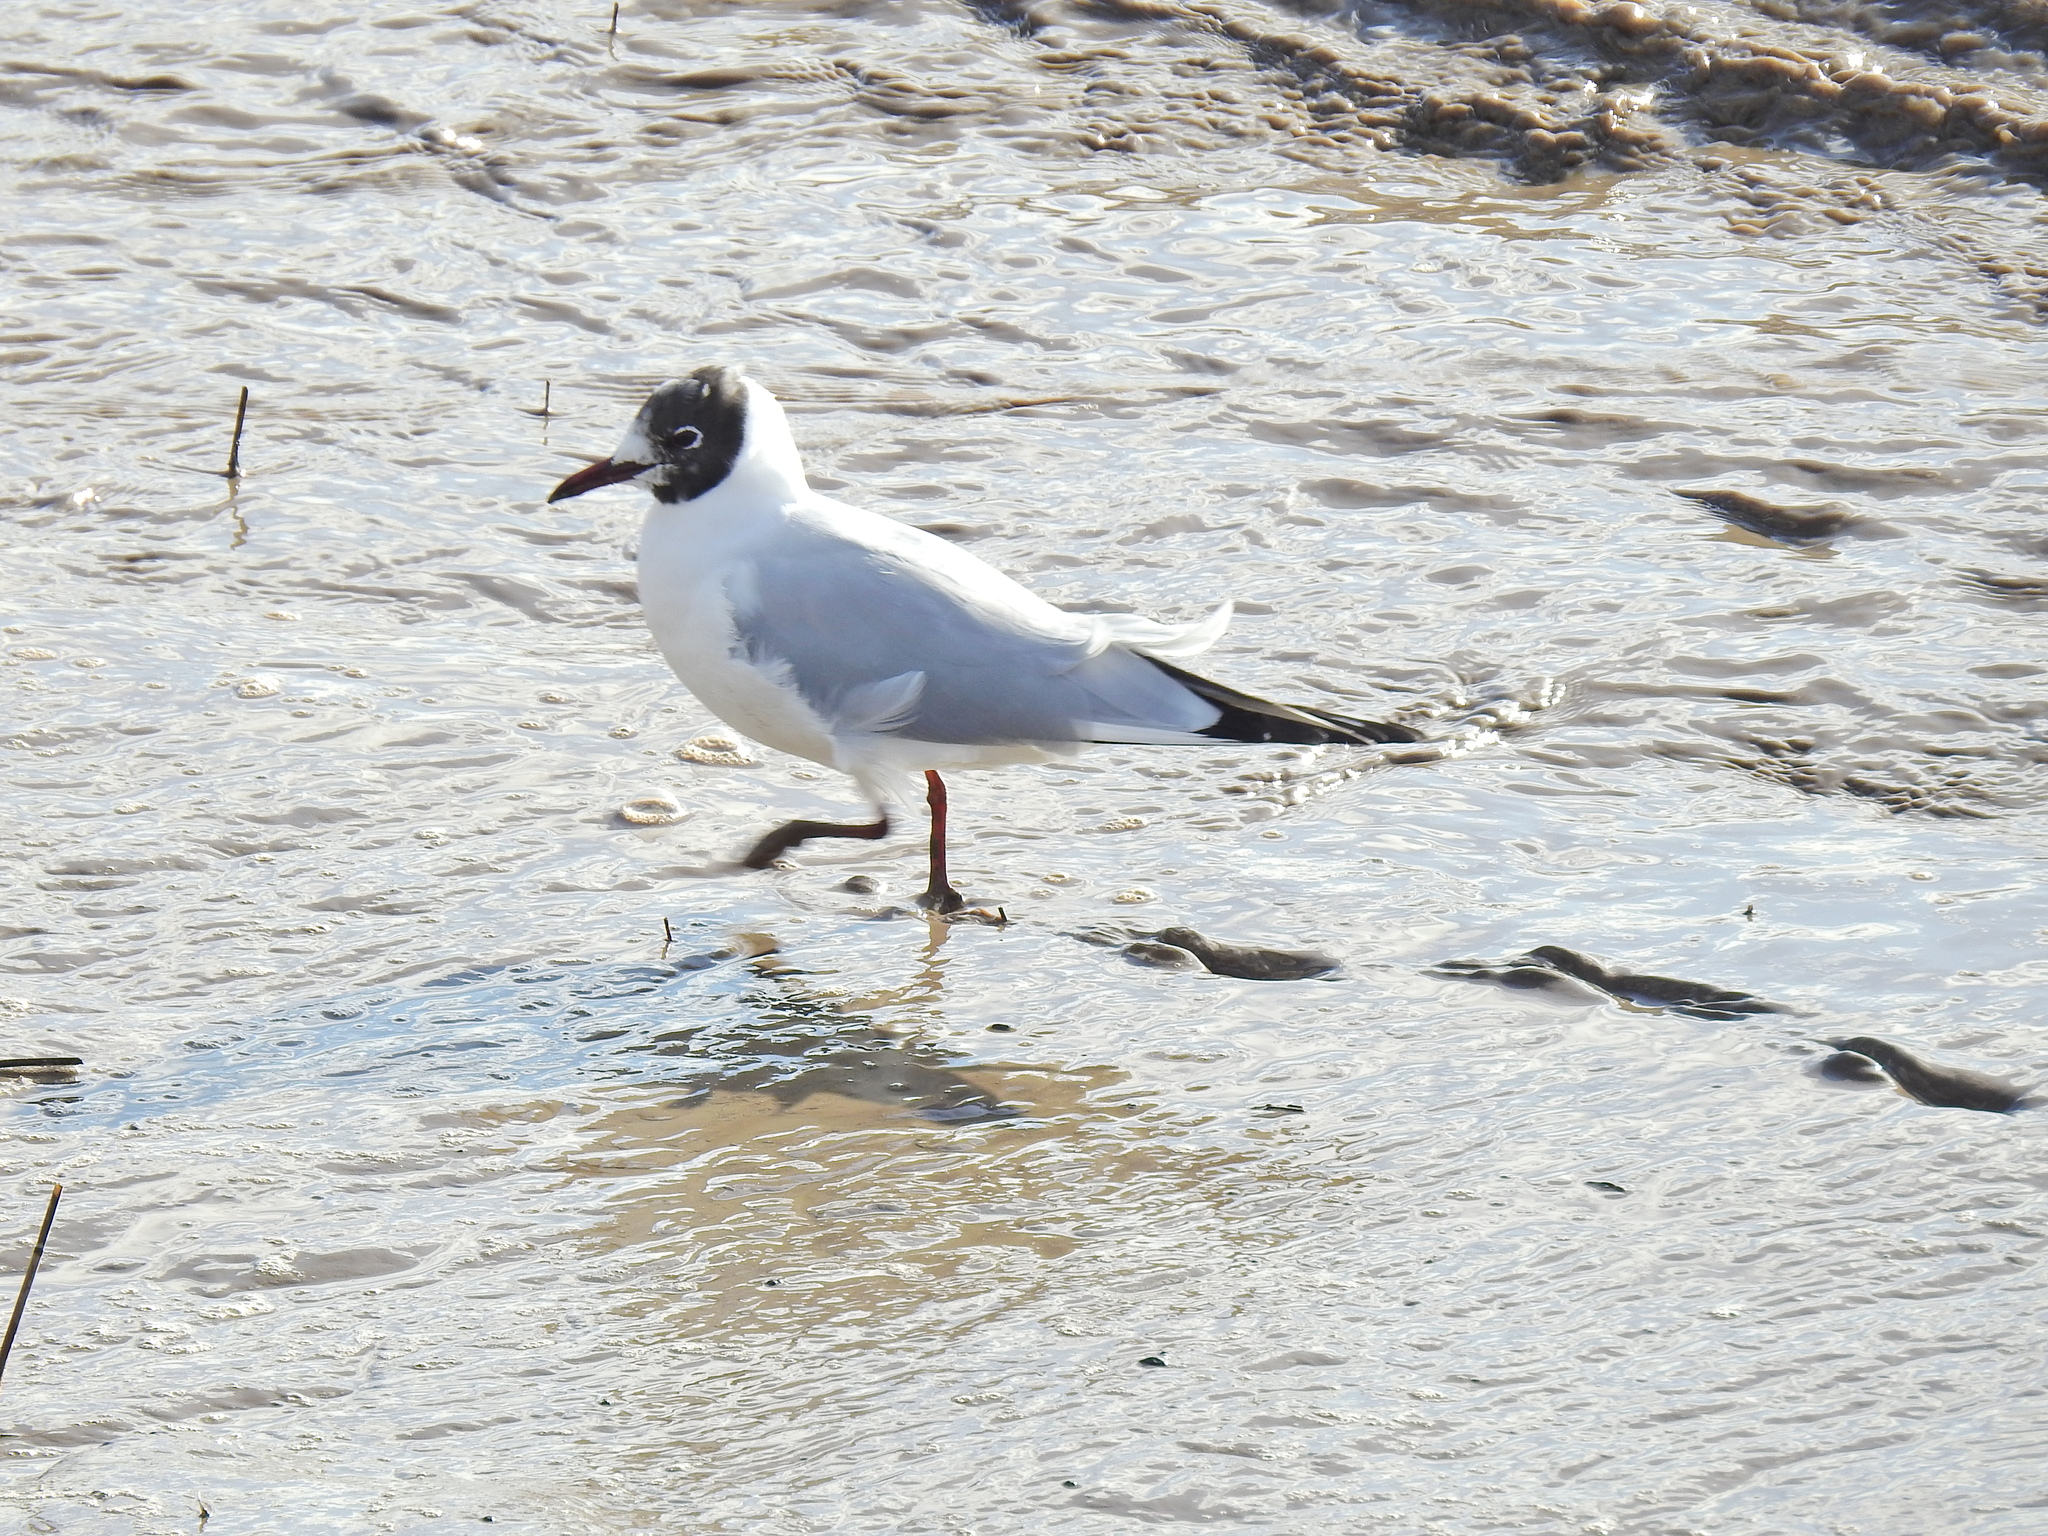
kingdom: Animalia
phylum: Chordata
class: Aves
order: Charadriiformes
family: Laridae
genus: Chroicocephalus
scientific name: Chroicocephalus ridibundus
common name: Black-headed gull
